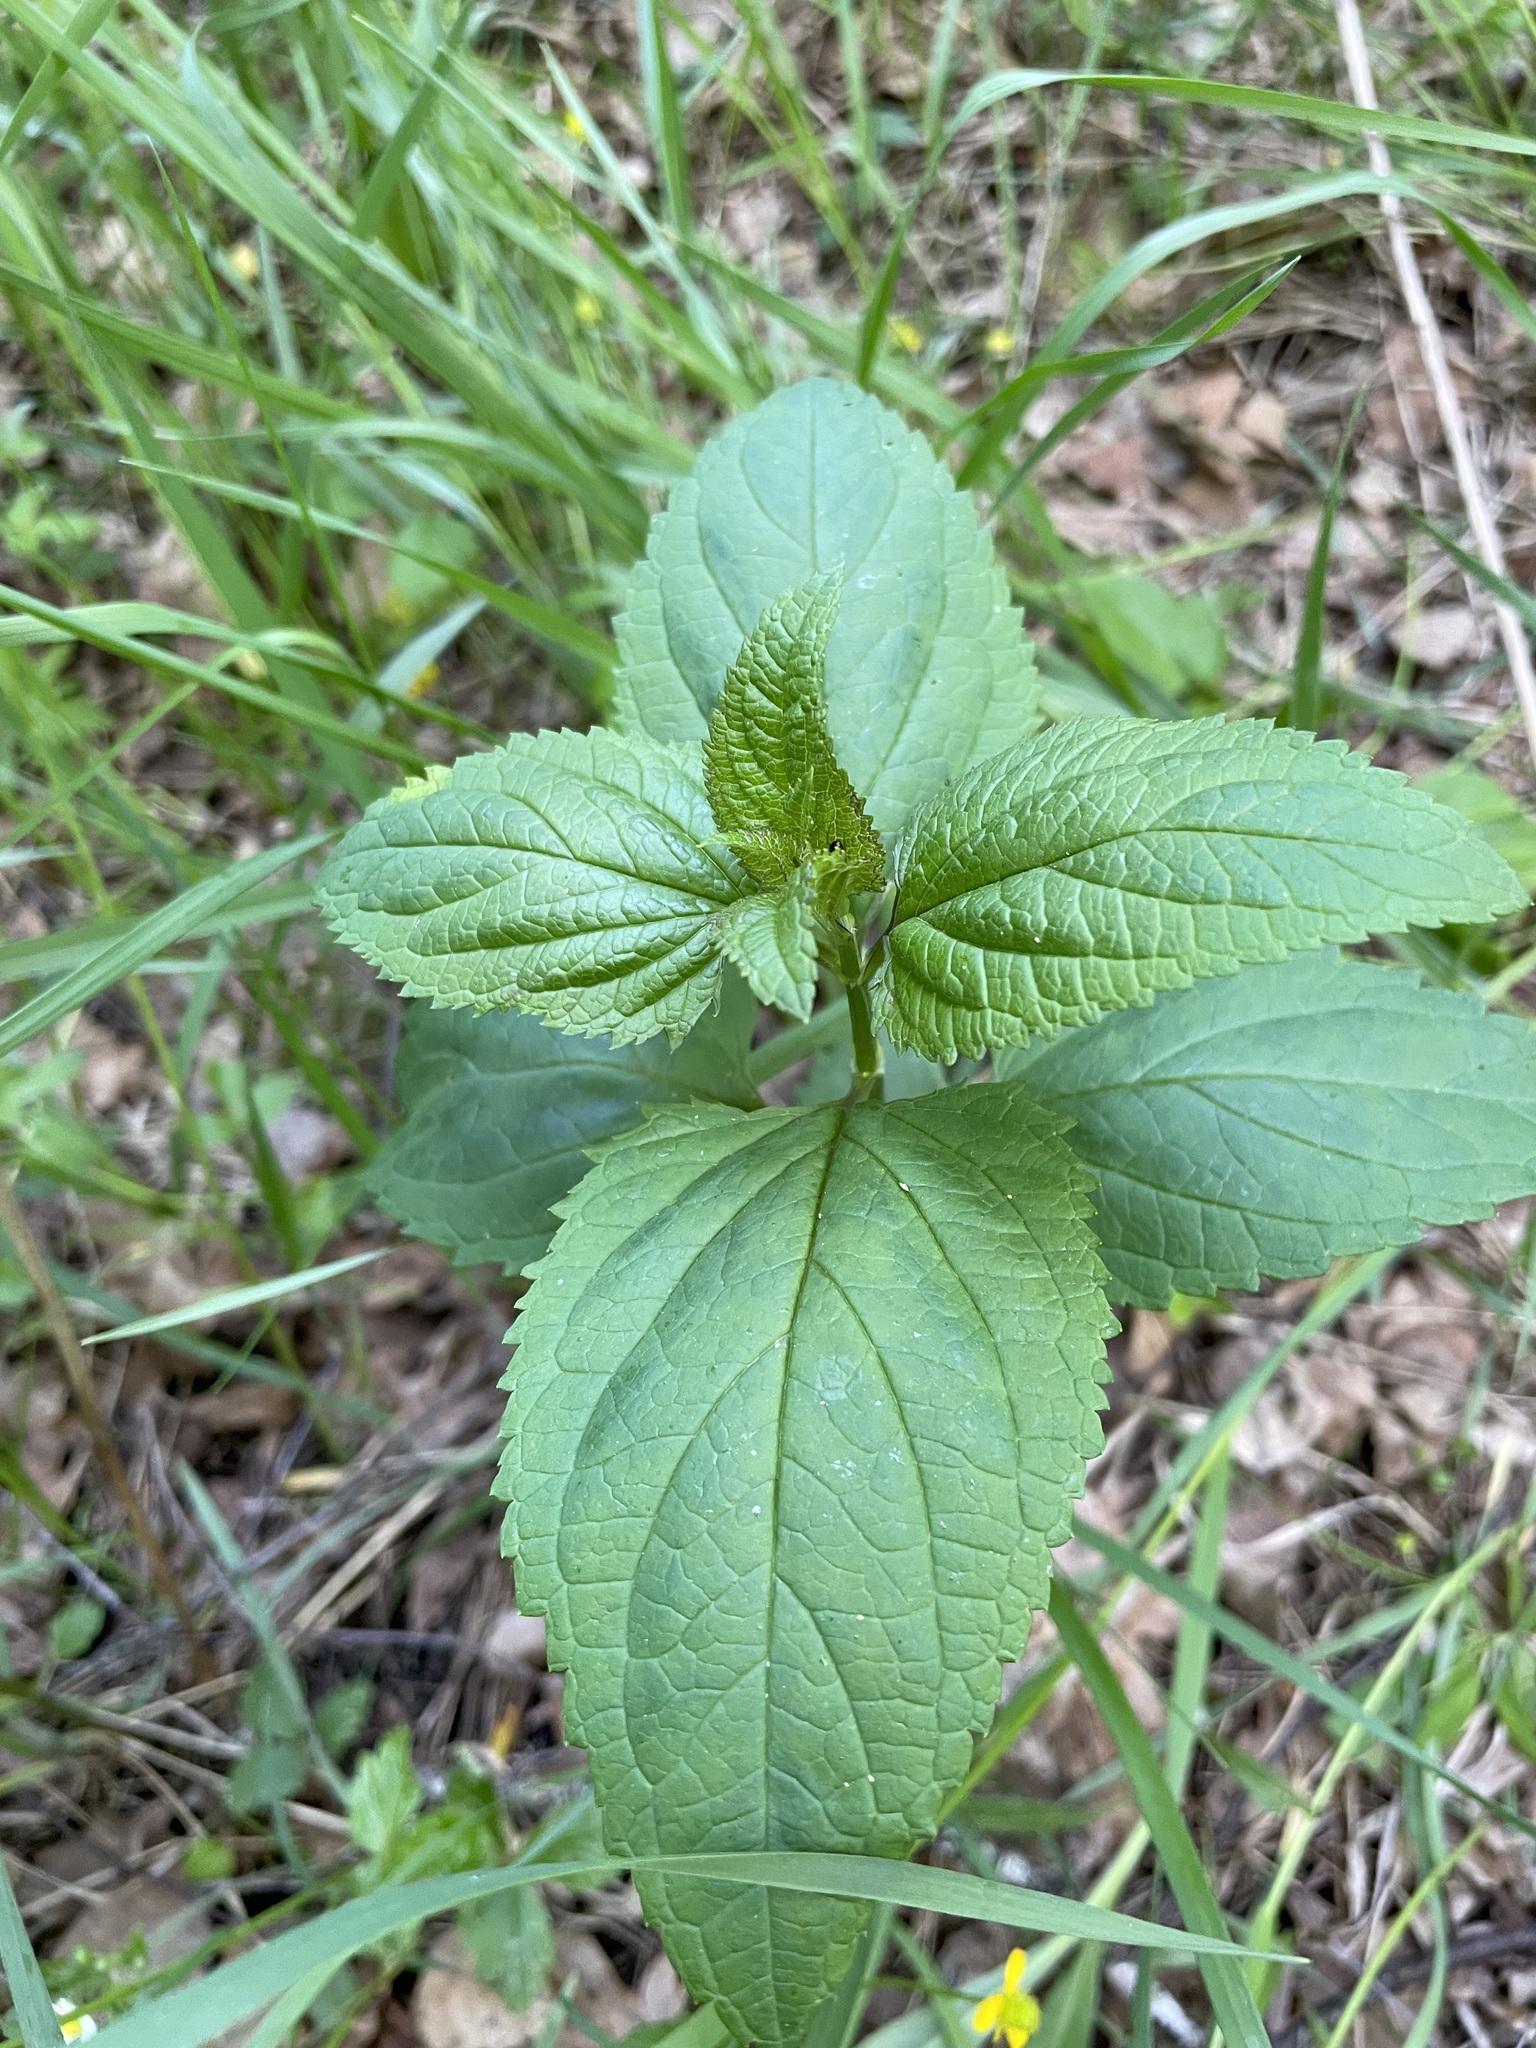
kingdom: Plantae
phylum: Tracheophyta
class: Magnoliopsida
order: Lamiales
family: Scrophulariaceae
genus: Scrophularia
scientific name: Scrophularia nodosa
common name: Common figwort
